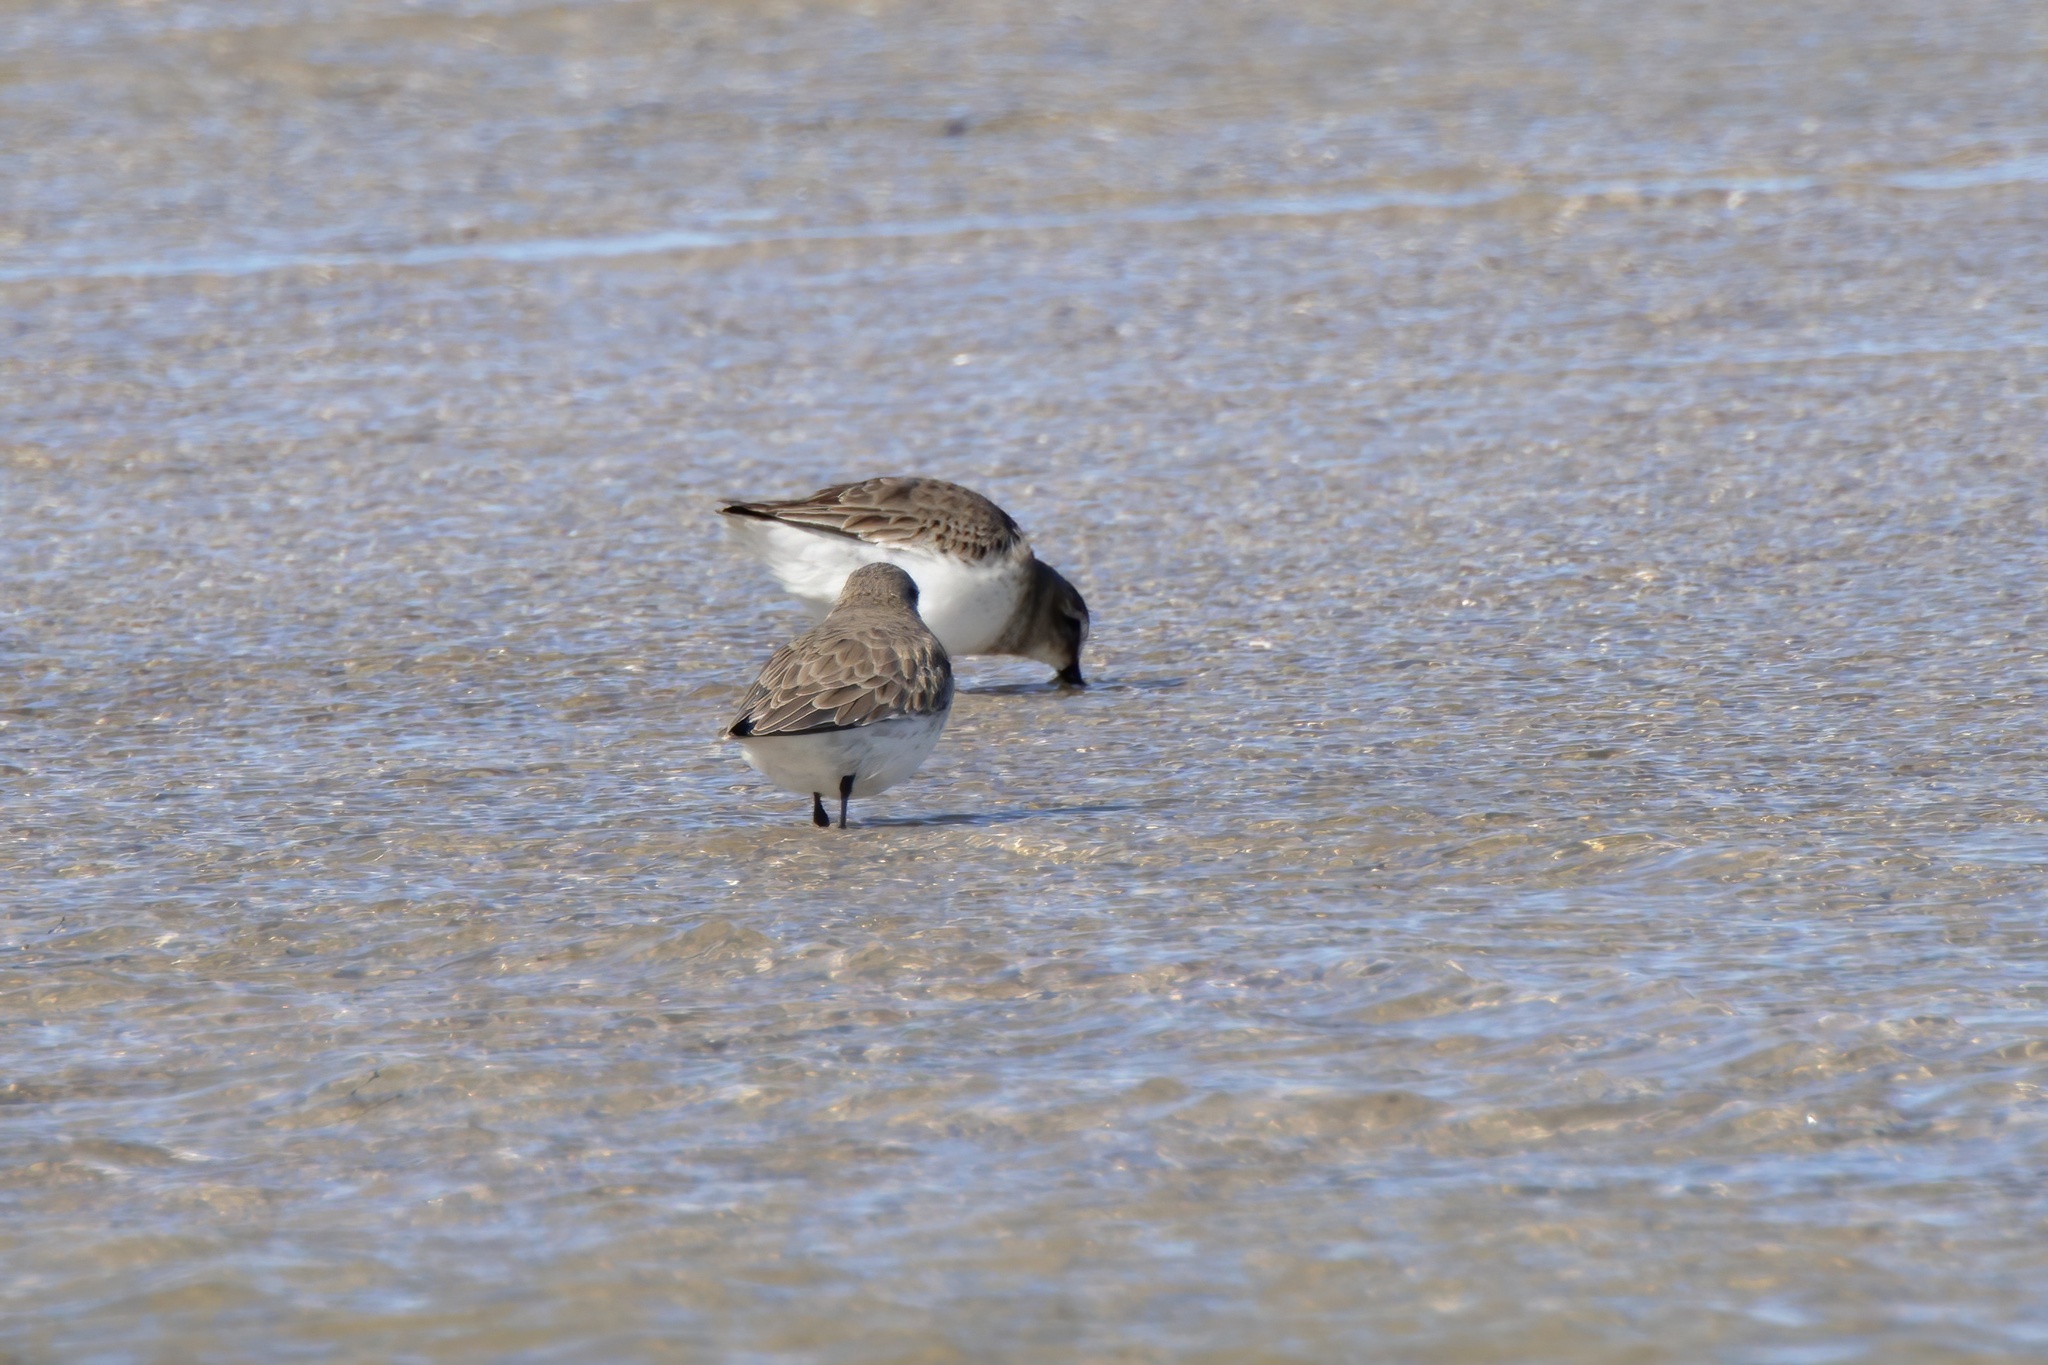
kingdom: Animalia
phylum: Chordata
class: Aves
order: Charadriiformes
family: Scolopacidae
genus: Calidris
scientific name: Calidris alpina
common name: Dunlin
